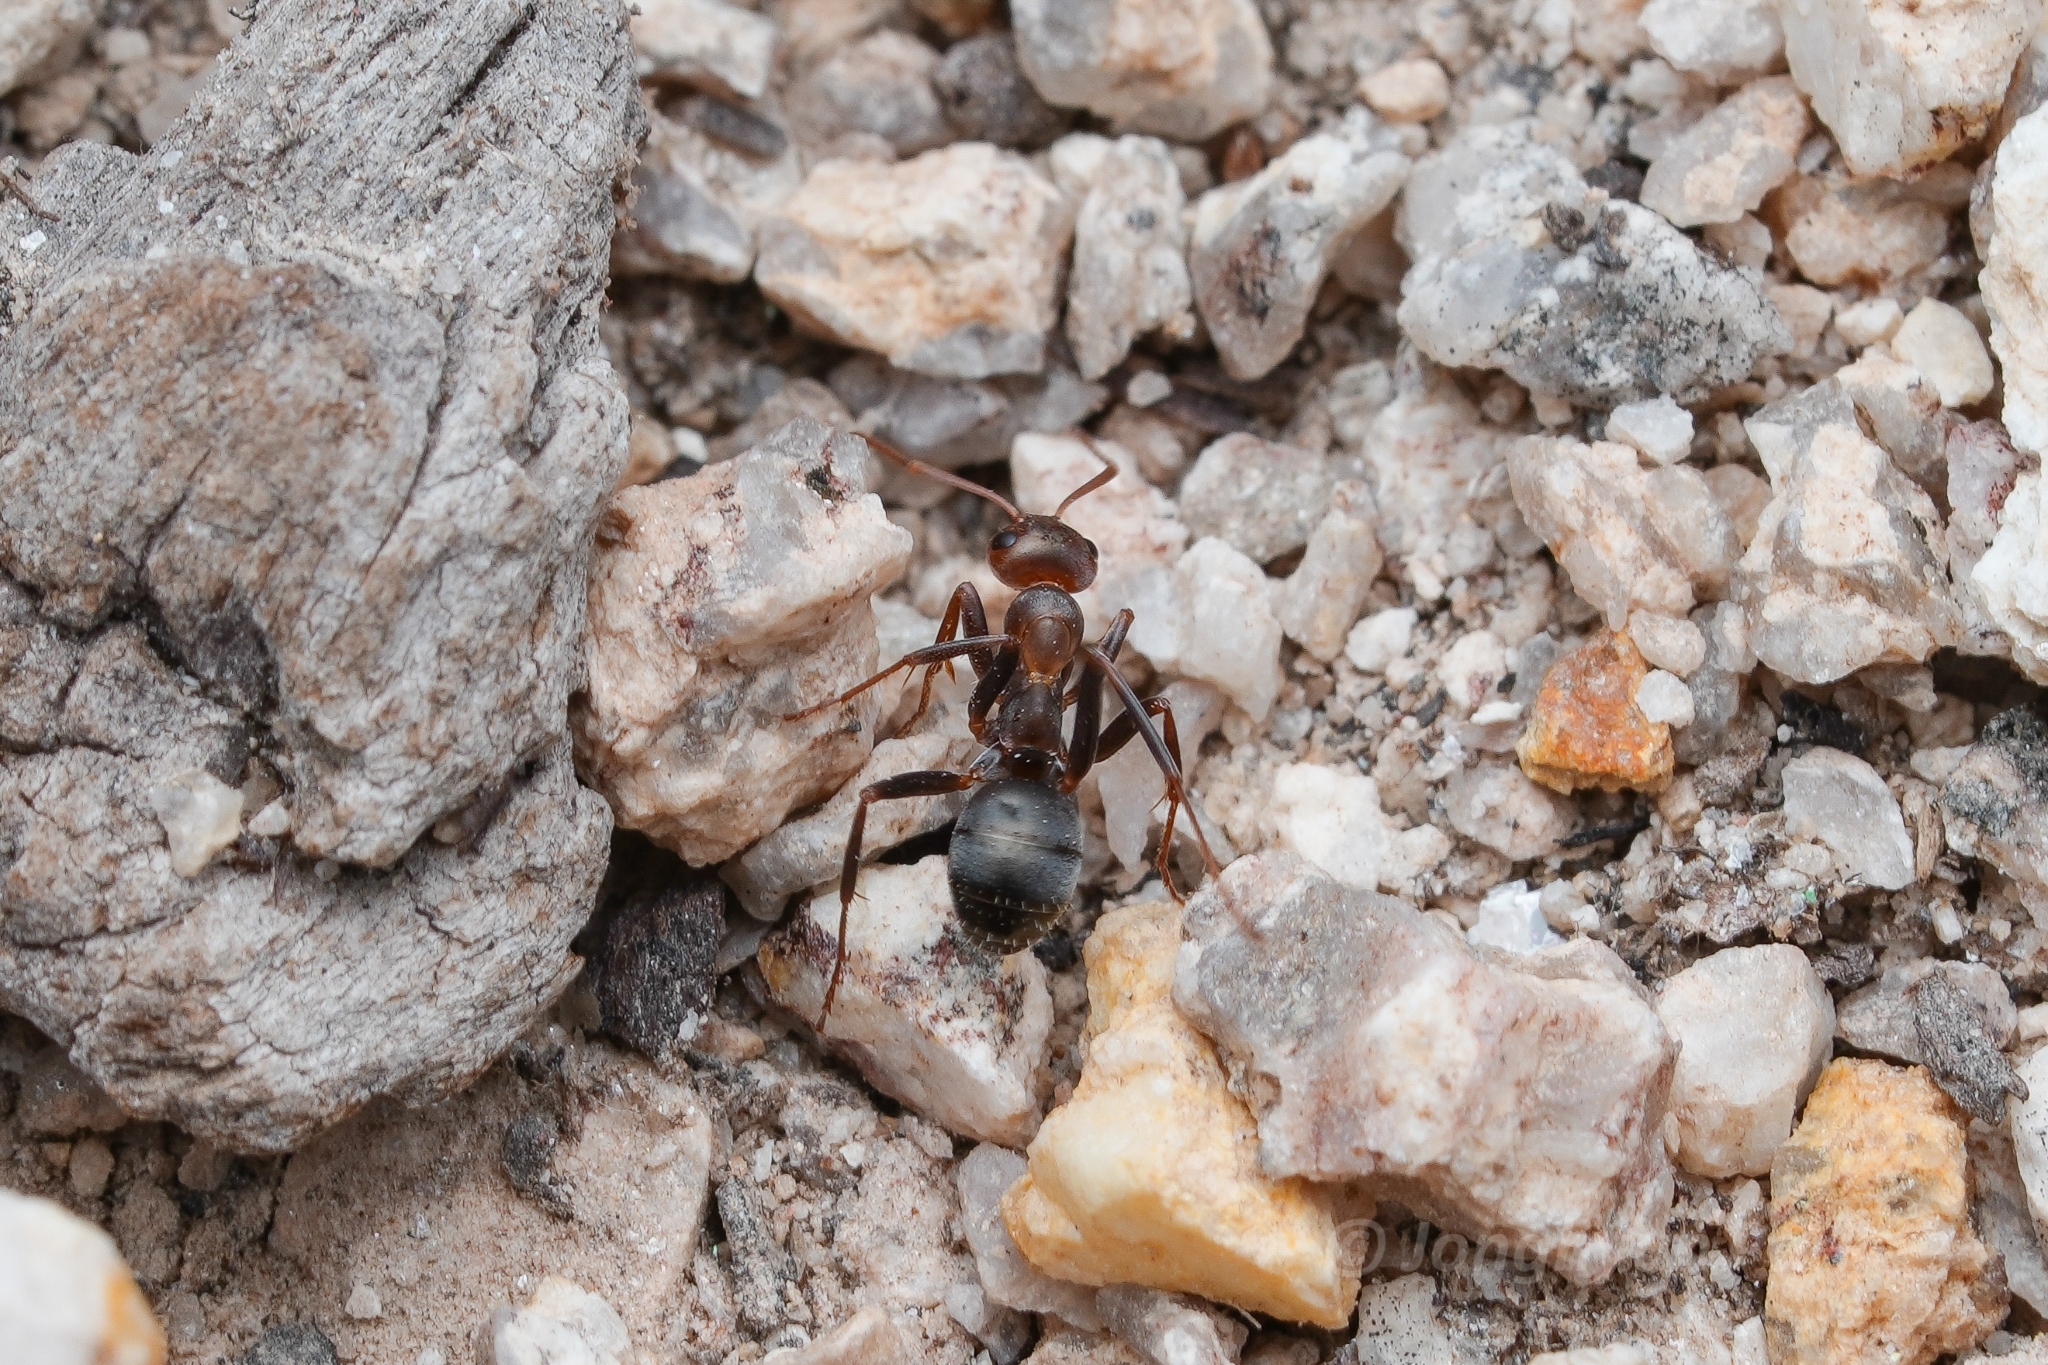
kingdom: Animalia
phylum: Arthropoda
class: Insecta
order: Hymenoptera
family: Formicidae
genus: Formica
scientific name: Formica gnava
